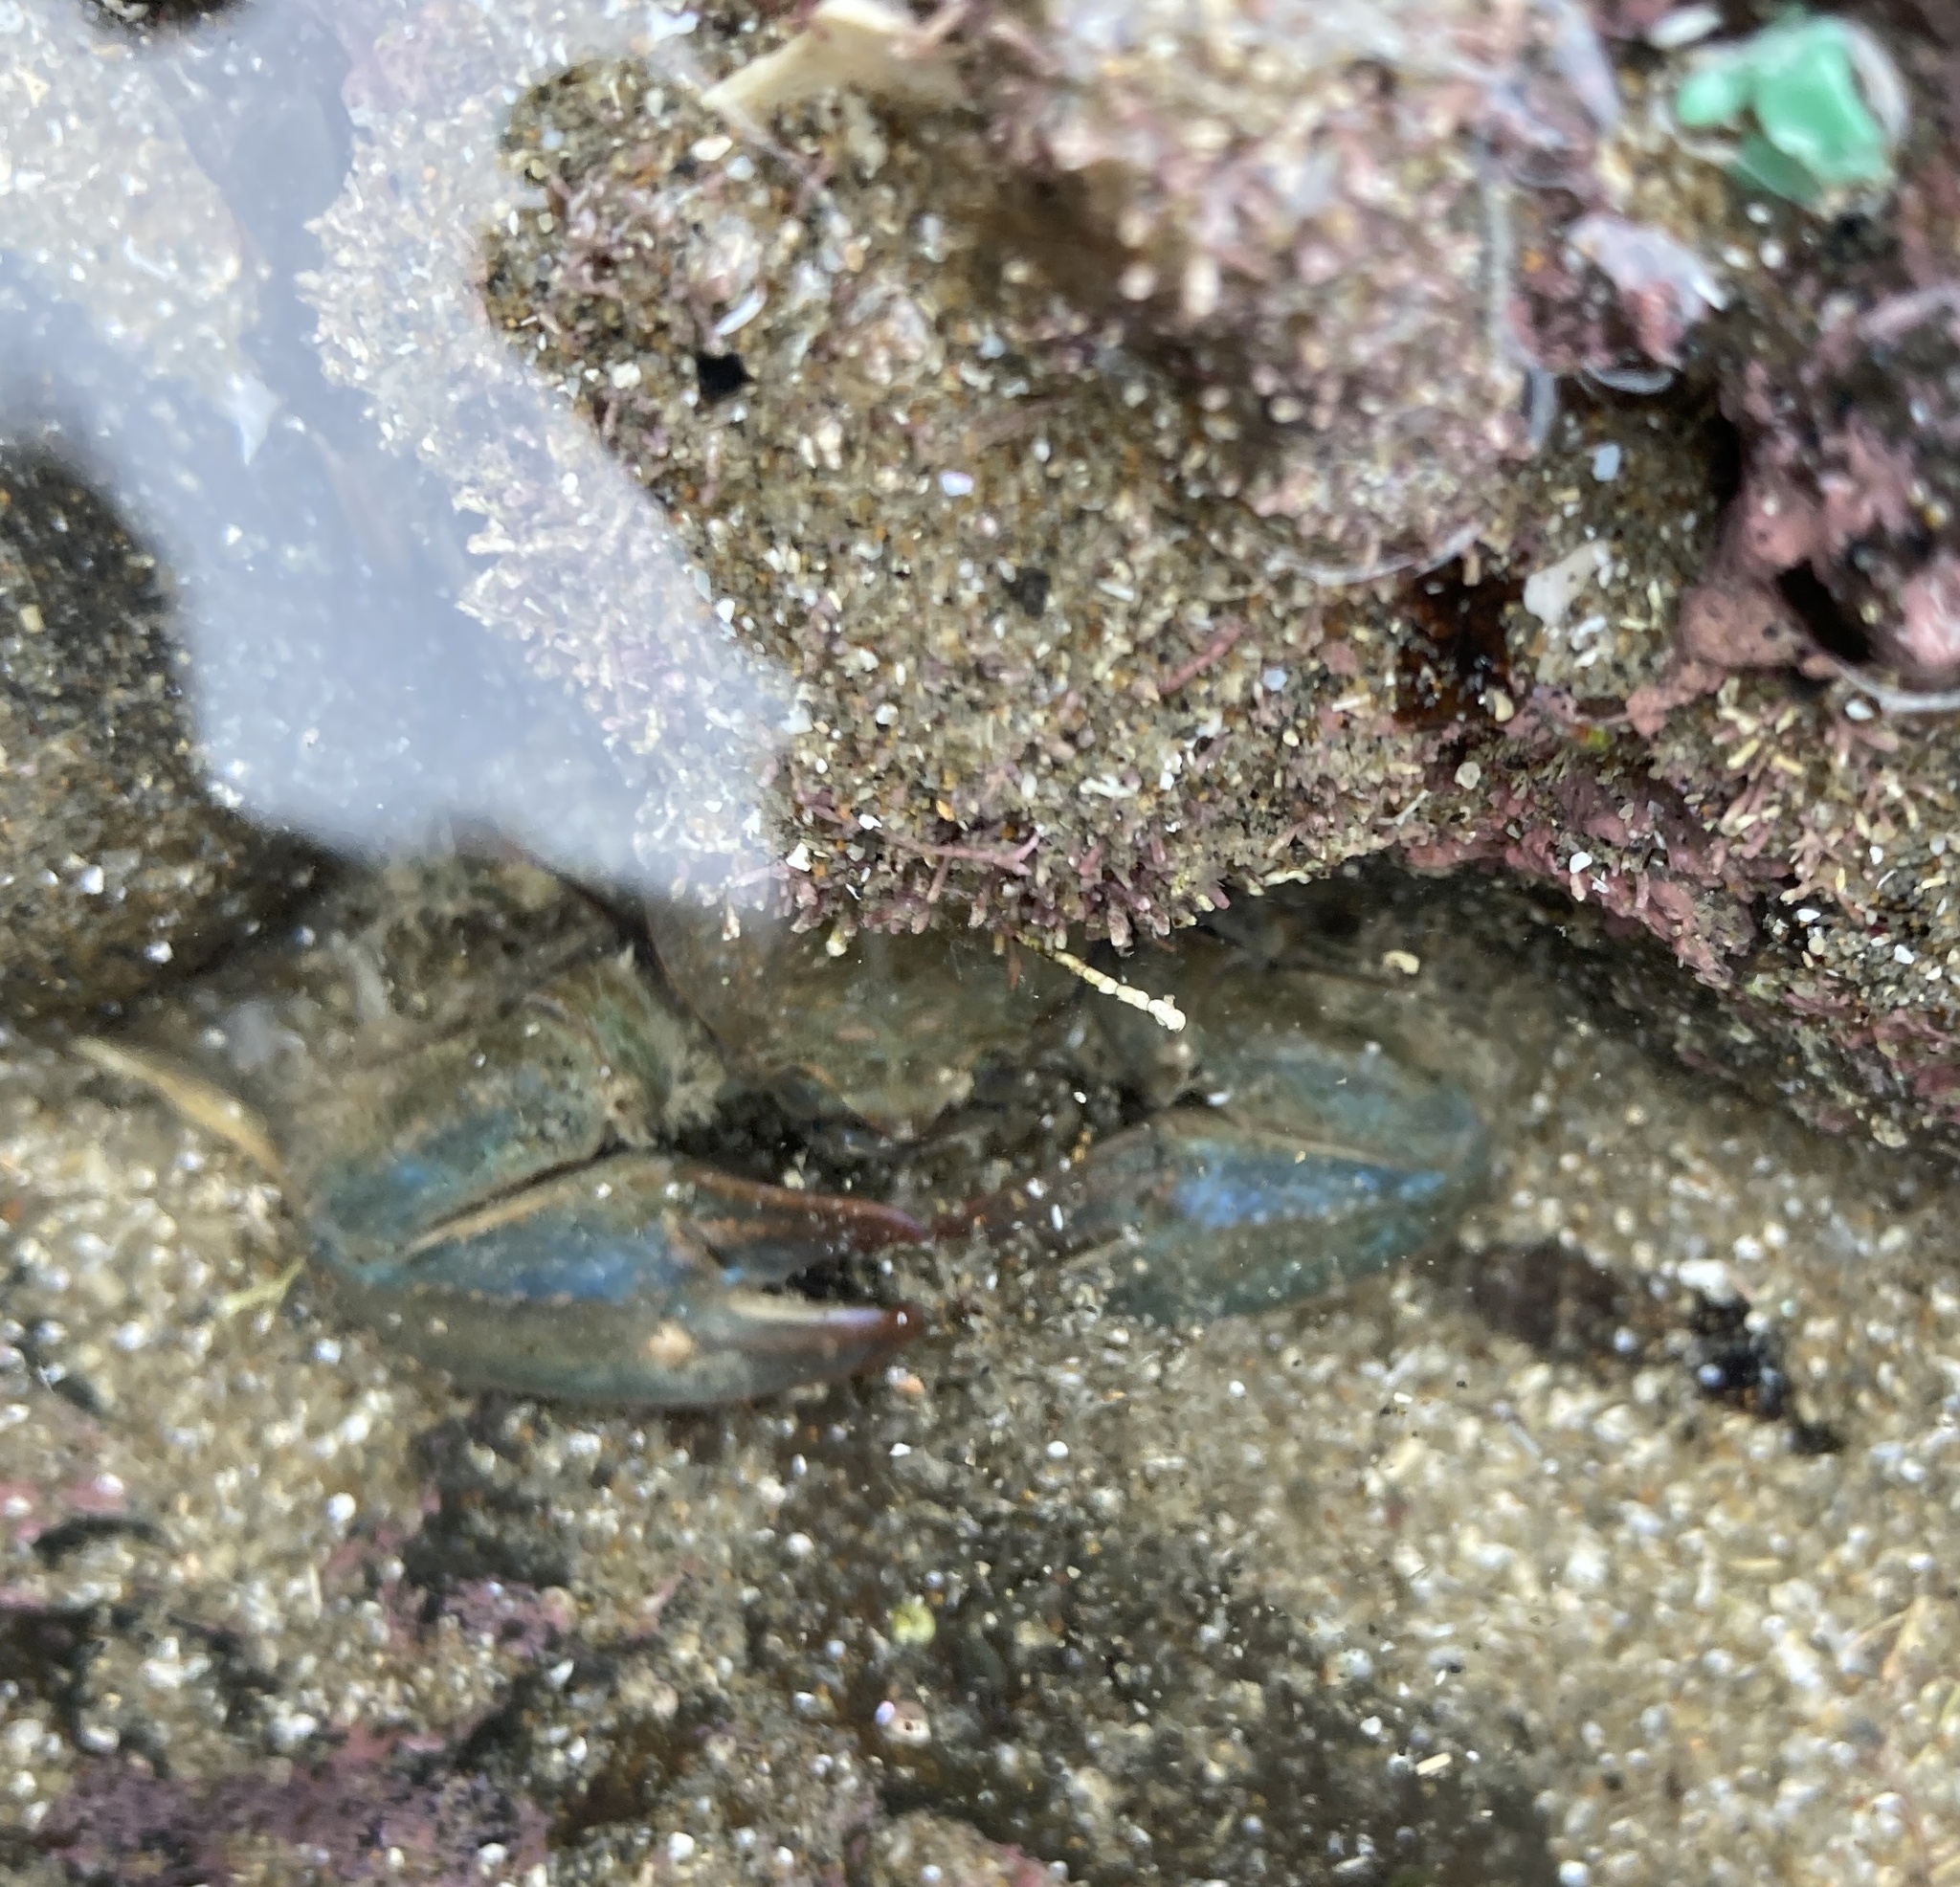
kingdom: Animalia
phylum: Arthropoda
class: Malacostraca
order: Decapoda
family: Porcellanidae
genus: Petrolisthes
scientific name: Petrolisthes elongatus
